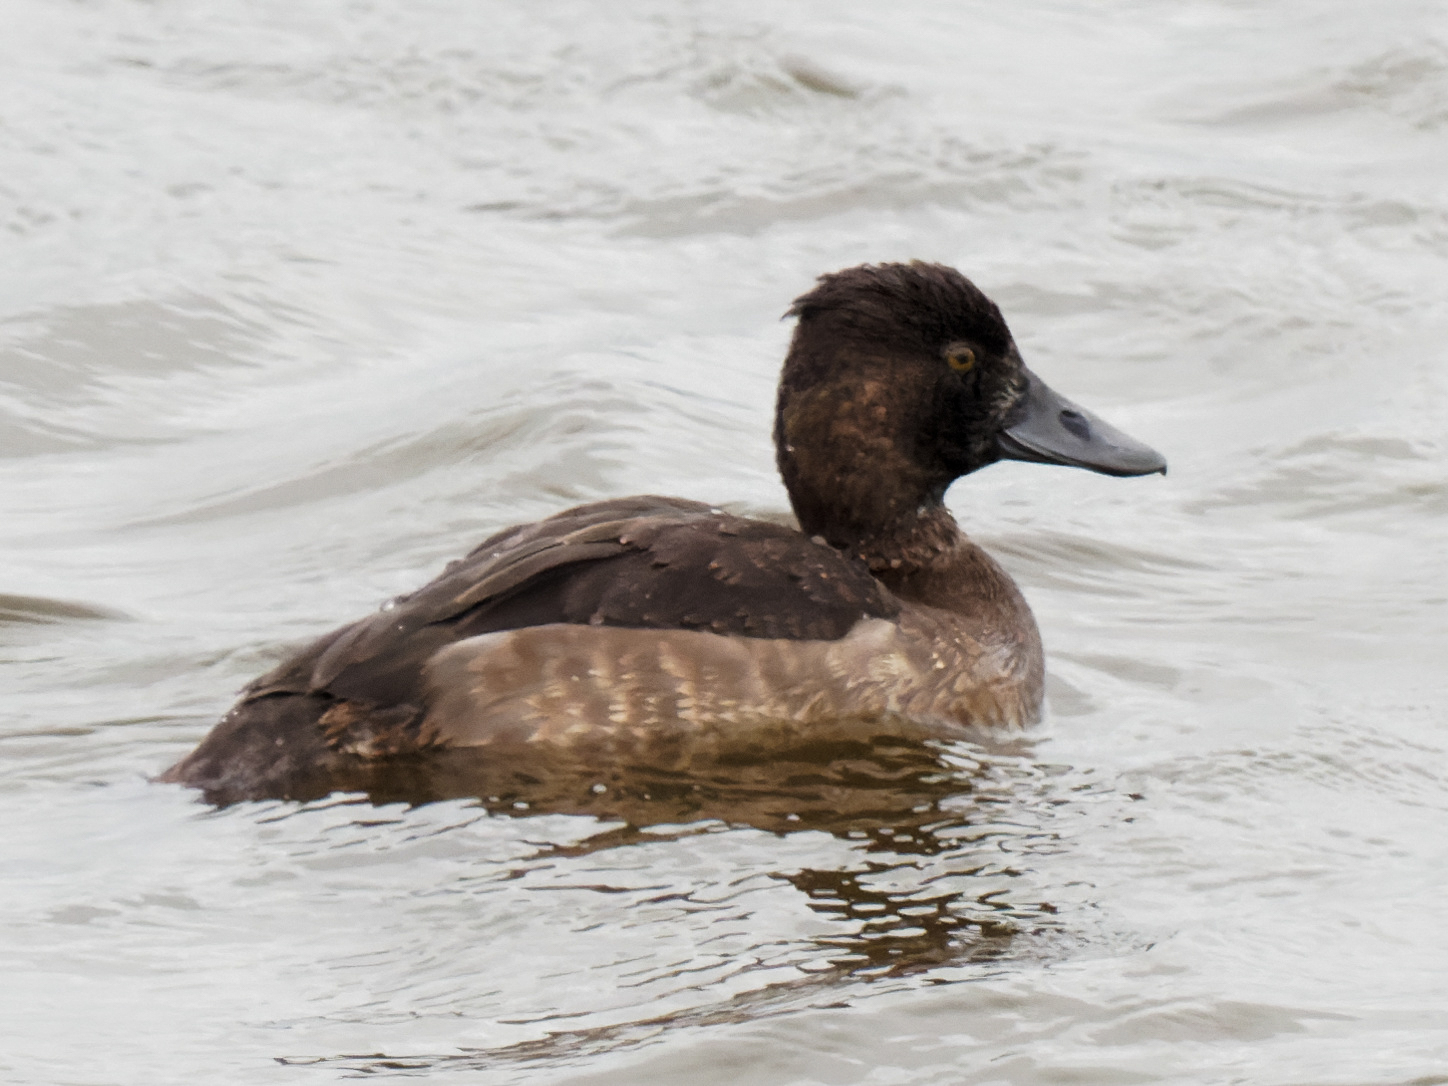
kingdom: Animalia
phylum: Chordata
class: Aves
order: Anseriformes
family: Anatidae
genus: Aythya
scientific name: Aythya fuligula
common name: Tufted duck
